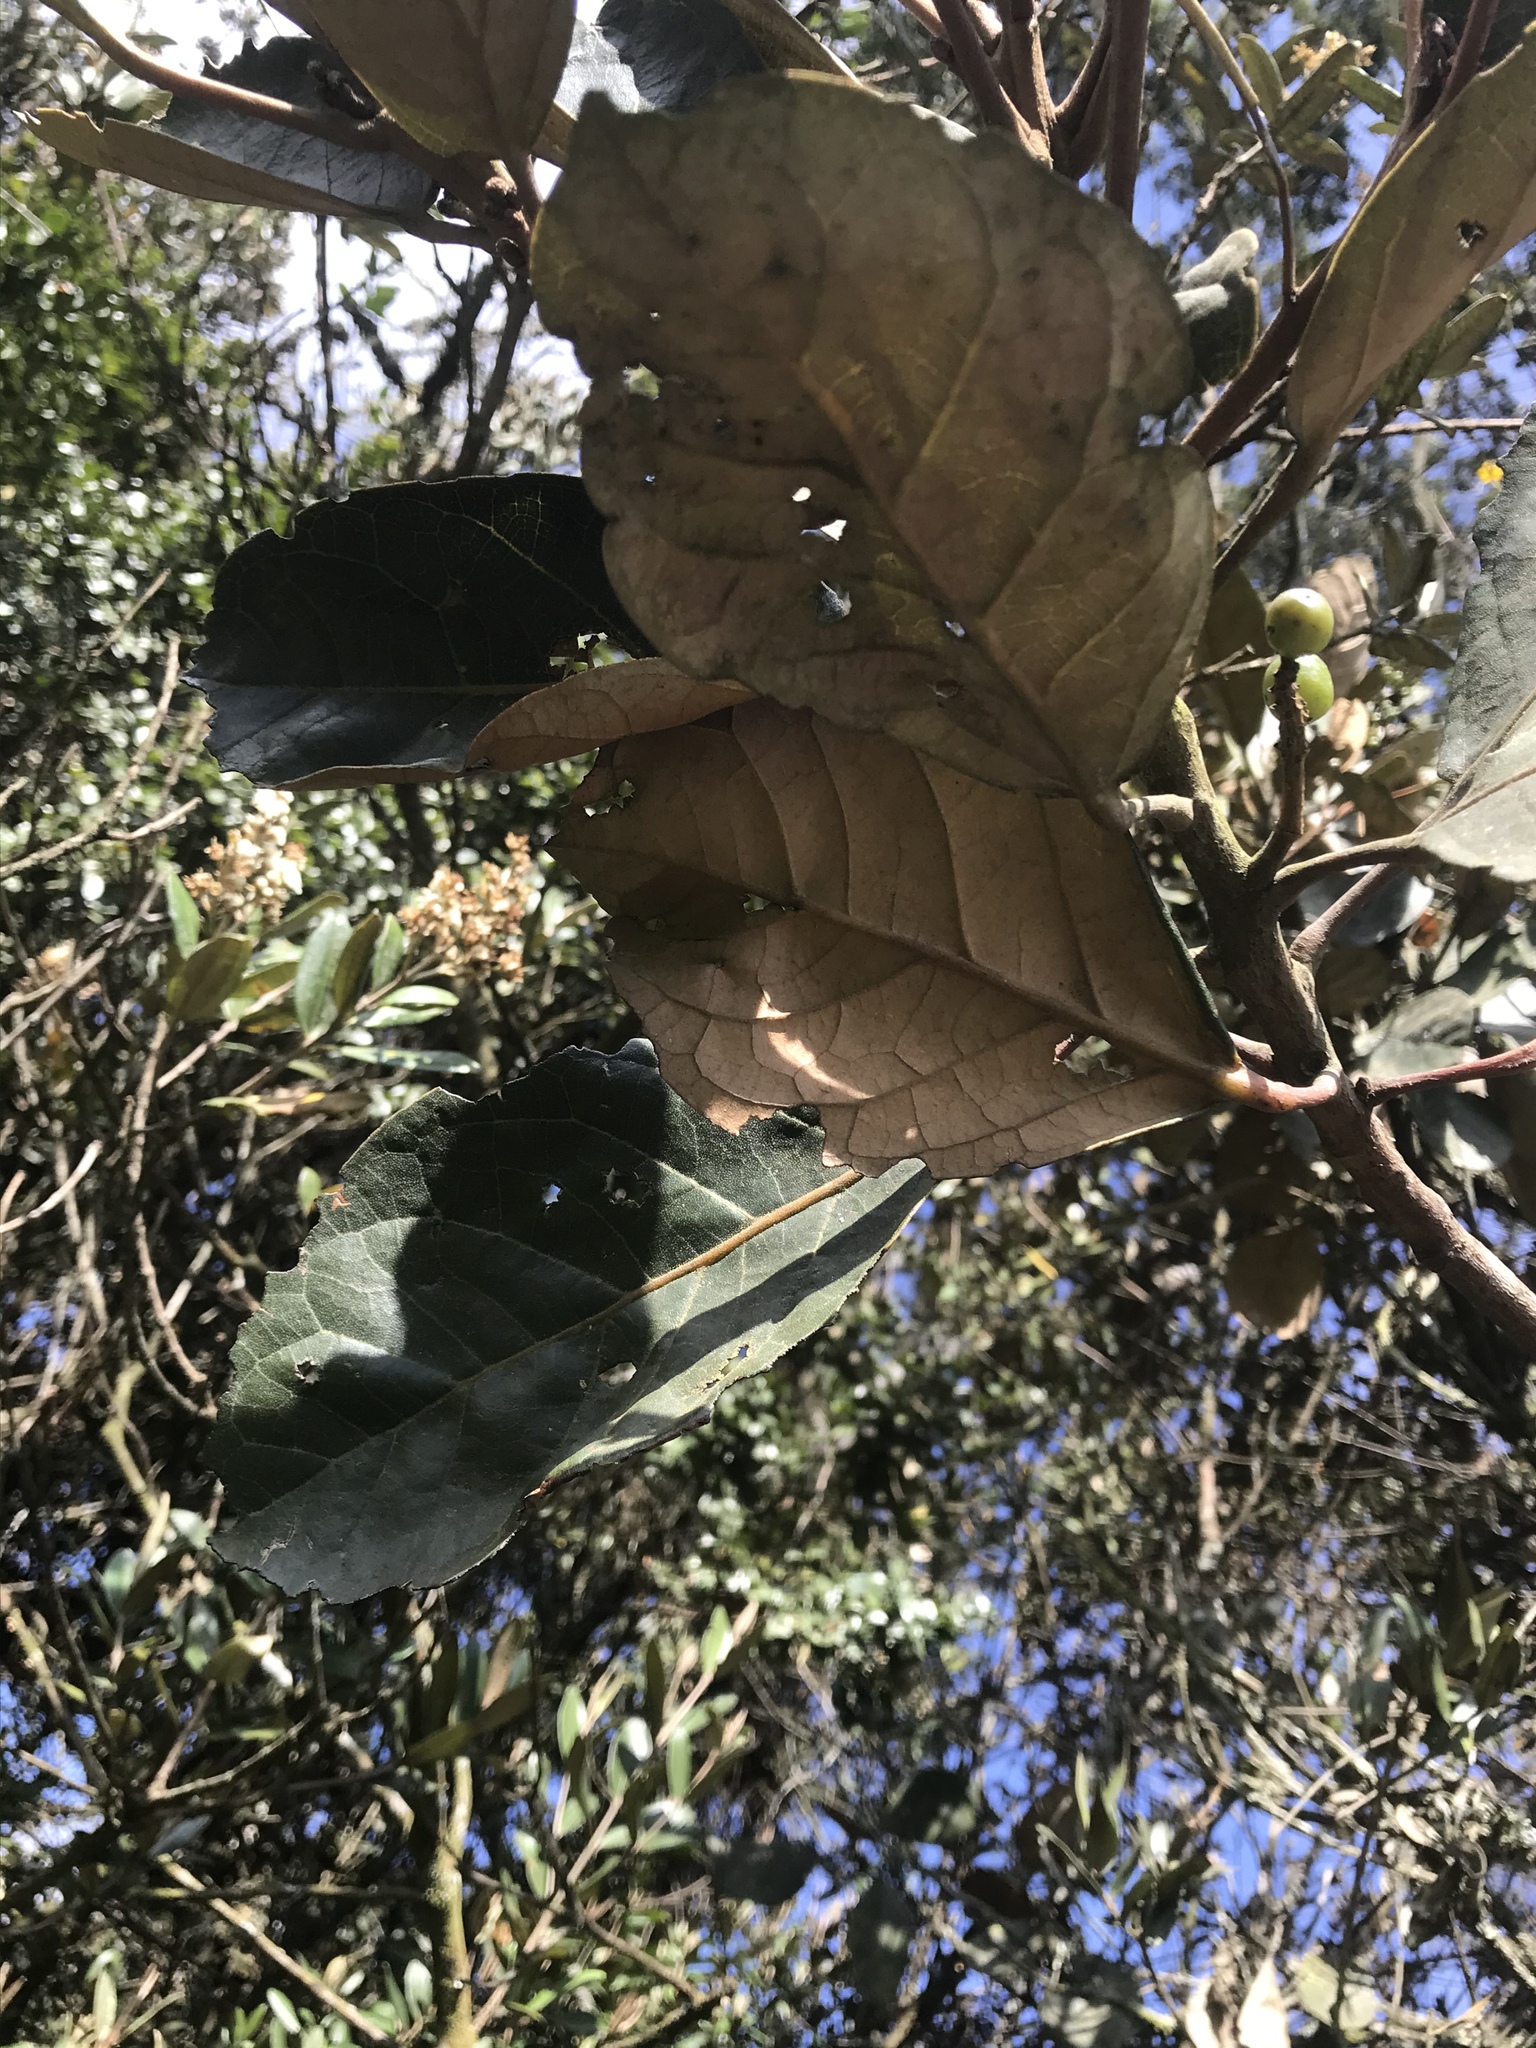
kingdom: Plantae
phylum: Tracheophyta
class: Magnoliopsida
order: Malpighiales
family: Phyllanthaceae
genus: Hieronyma
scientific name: Hieronyma rufa
